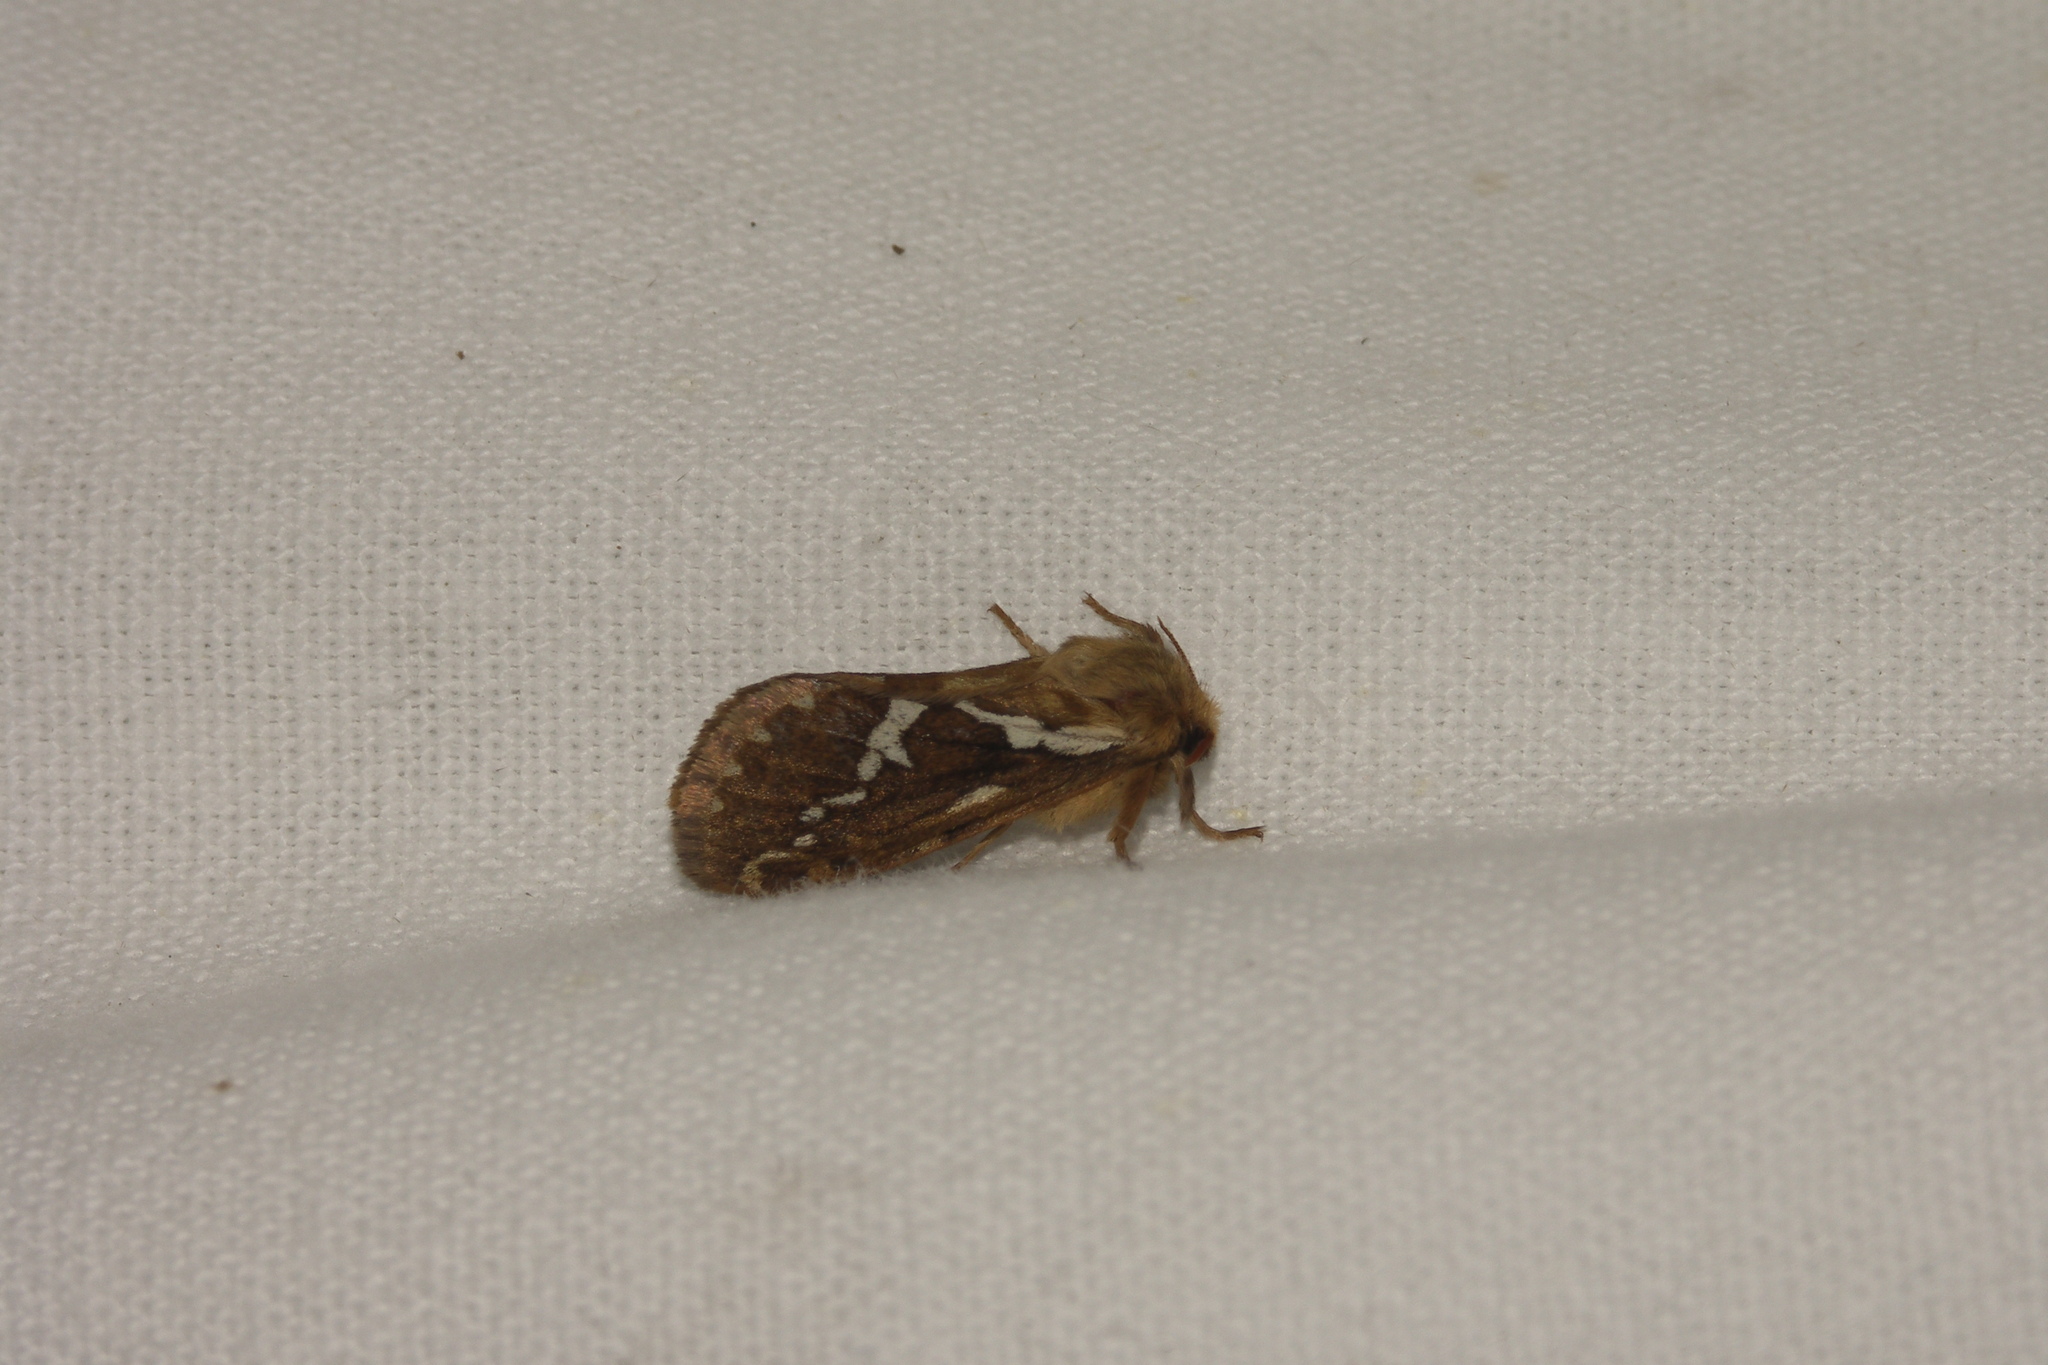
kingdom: Animalia
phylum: Arthropoda
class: Insecta
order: Lepidoptera
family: Hepialidae
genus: Korscheltellus
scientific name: Korscheltellus lupulina
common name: Common swift
